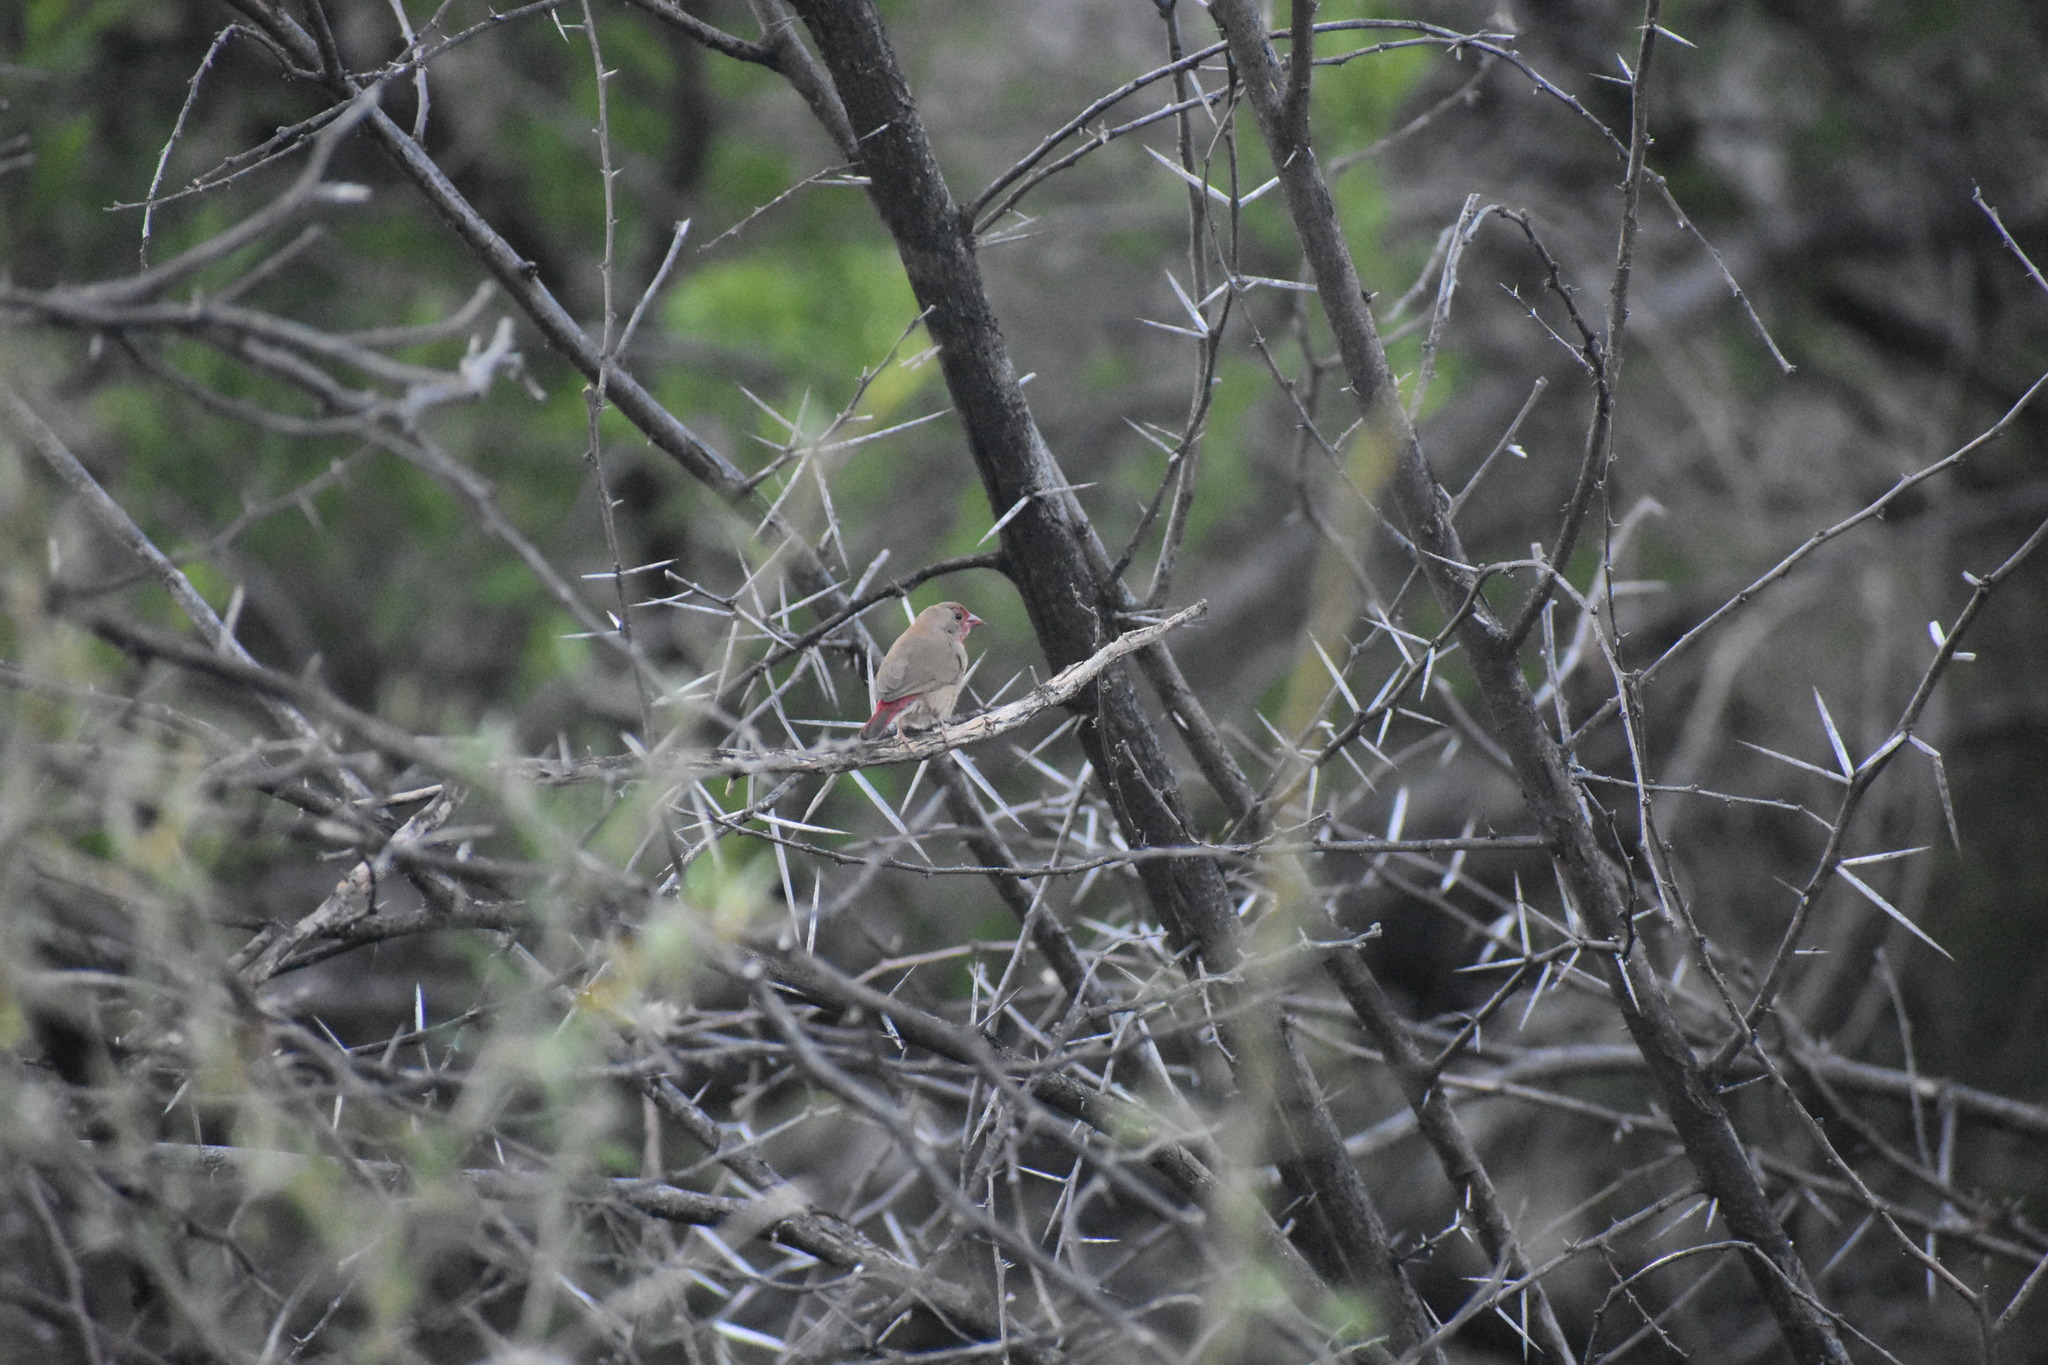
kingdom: Animalia
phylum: Chordata
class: Aves
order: Passeriformes
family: Estrildidae
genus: Lagonosticta
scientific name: Lagonosticta senegala
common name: Red-billed firefinch
